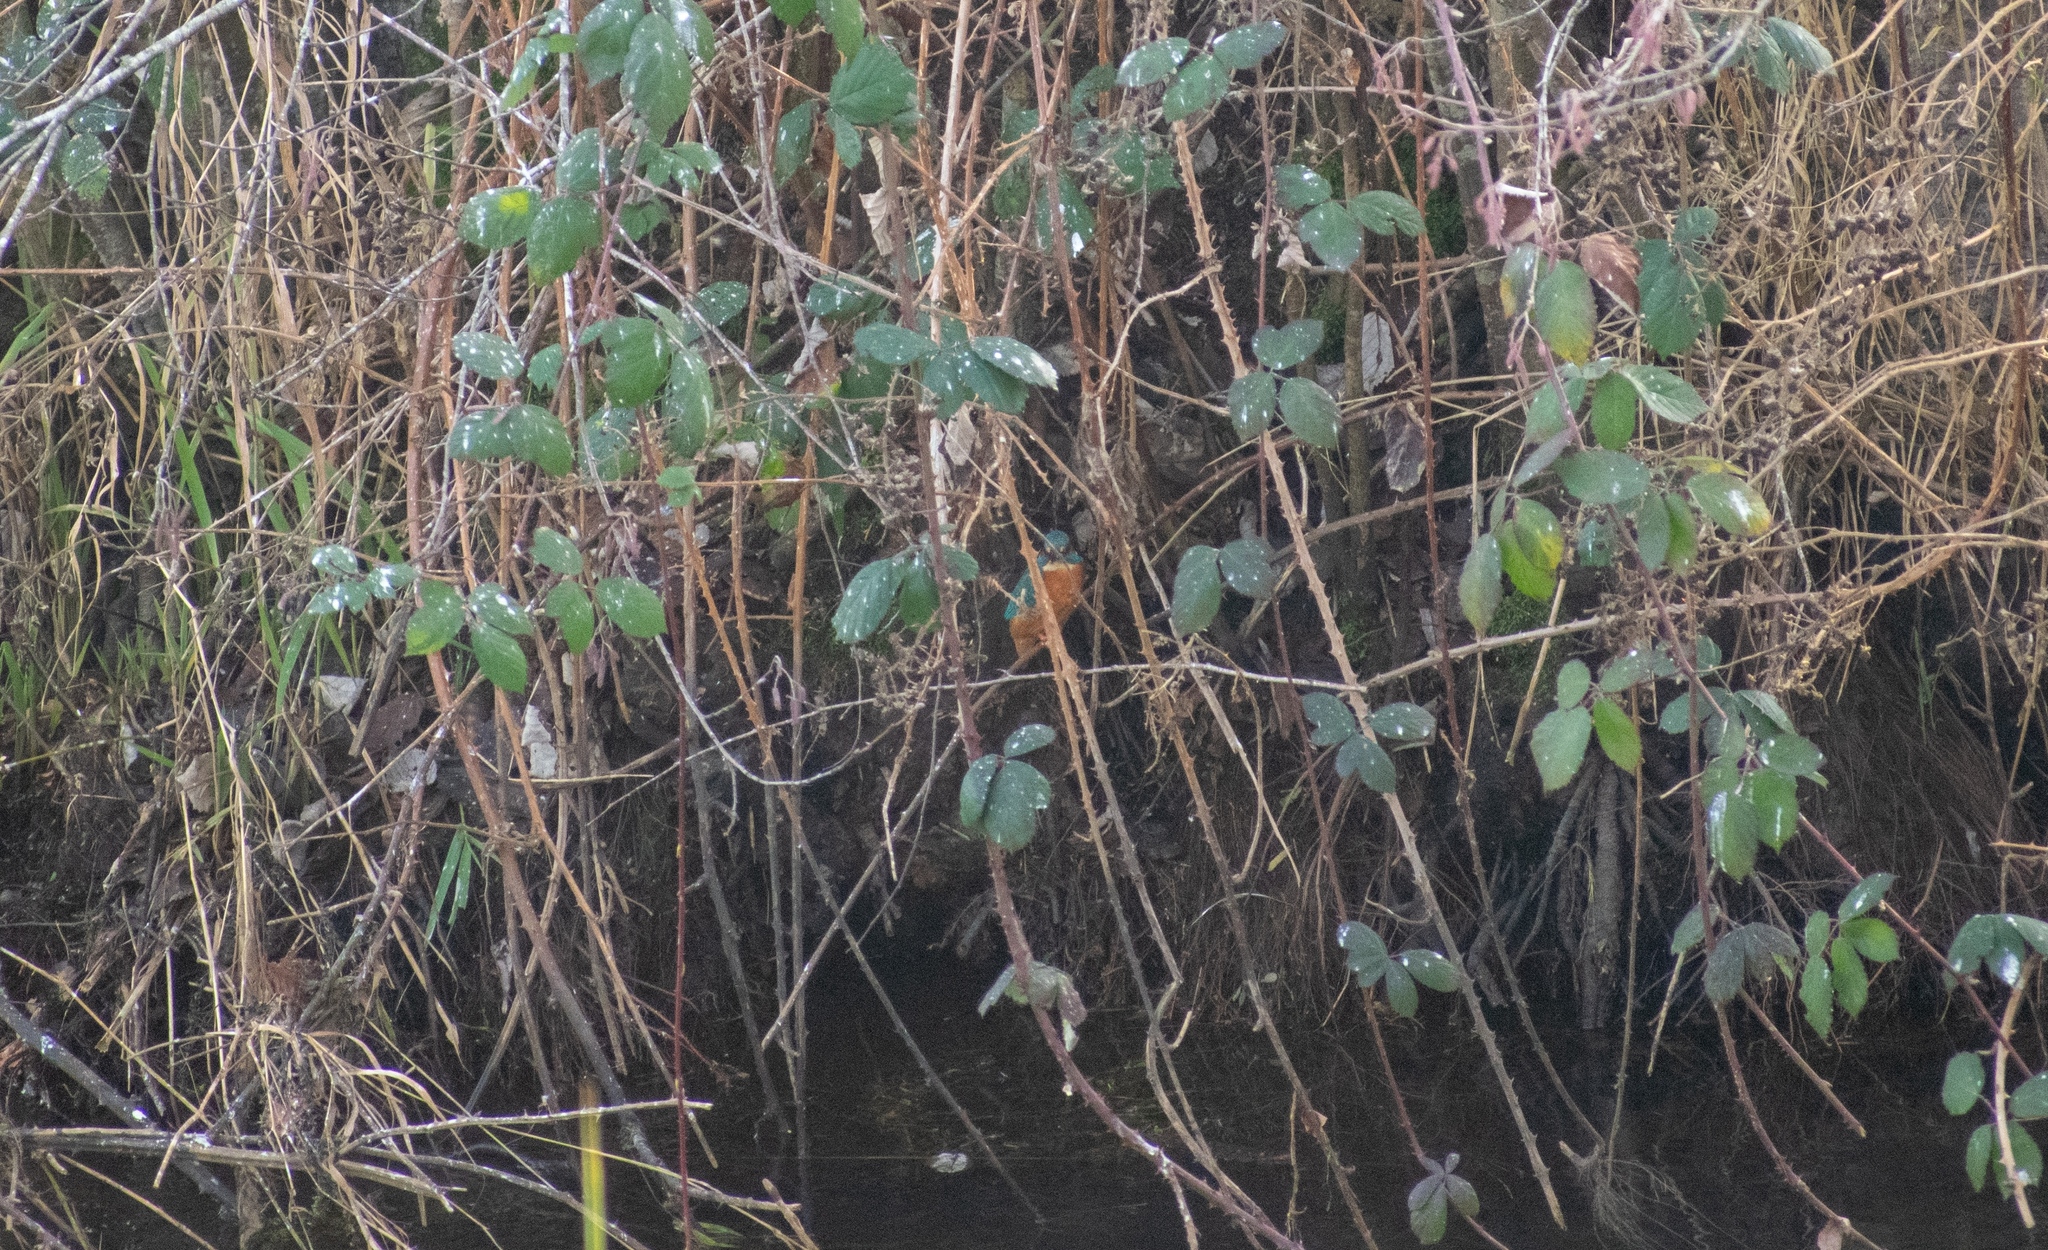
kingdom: Animalia
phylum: Chordata
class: Aves
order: Coraciiformes
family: Alcedinidae
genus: Alcedo
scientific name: Alcedo atthis
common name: Common kingfisher
